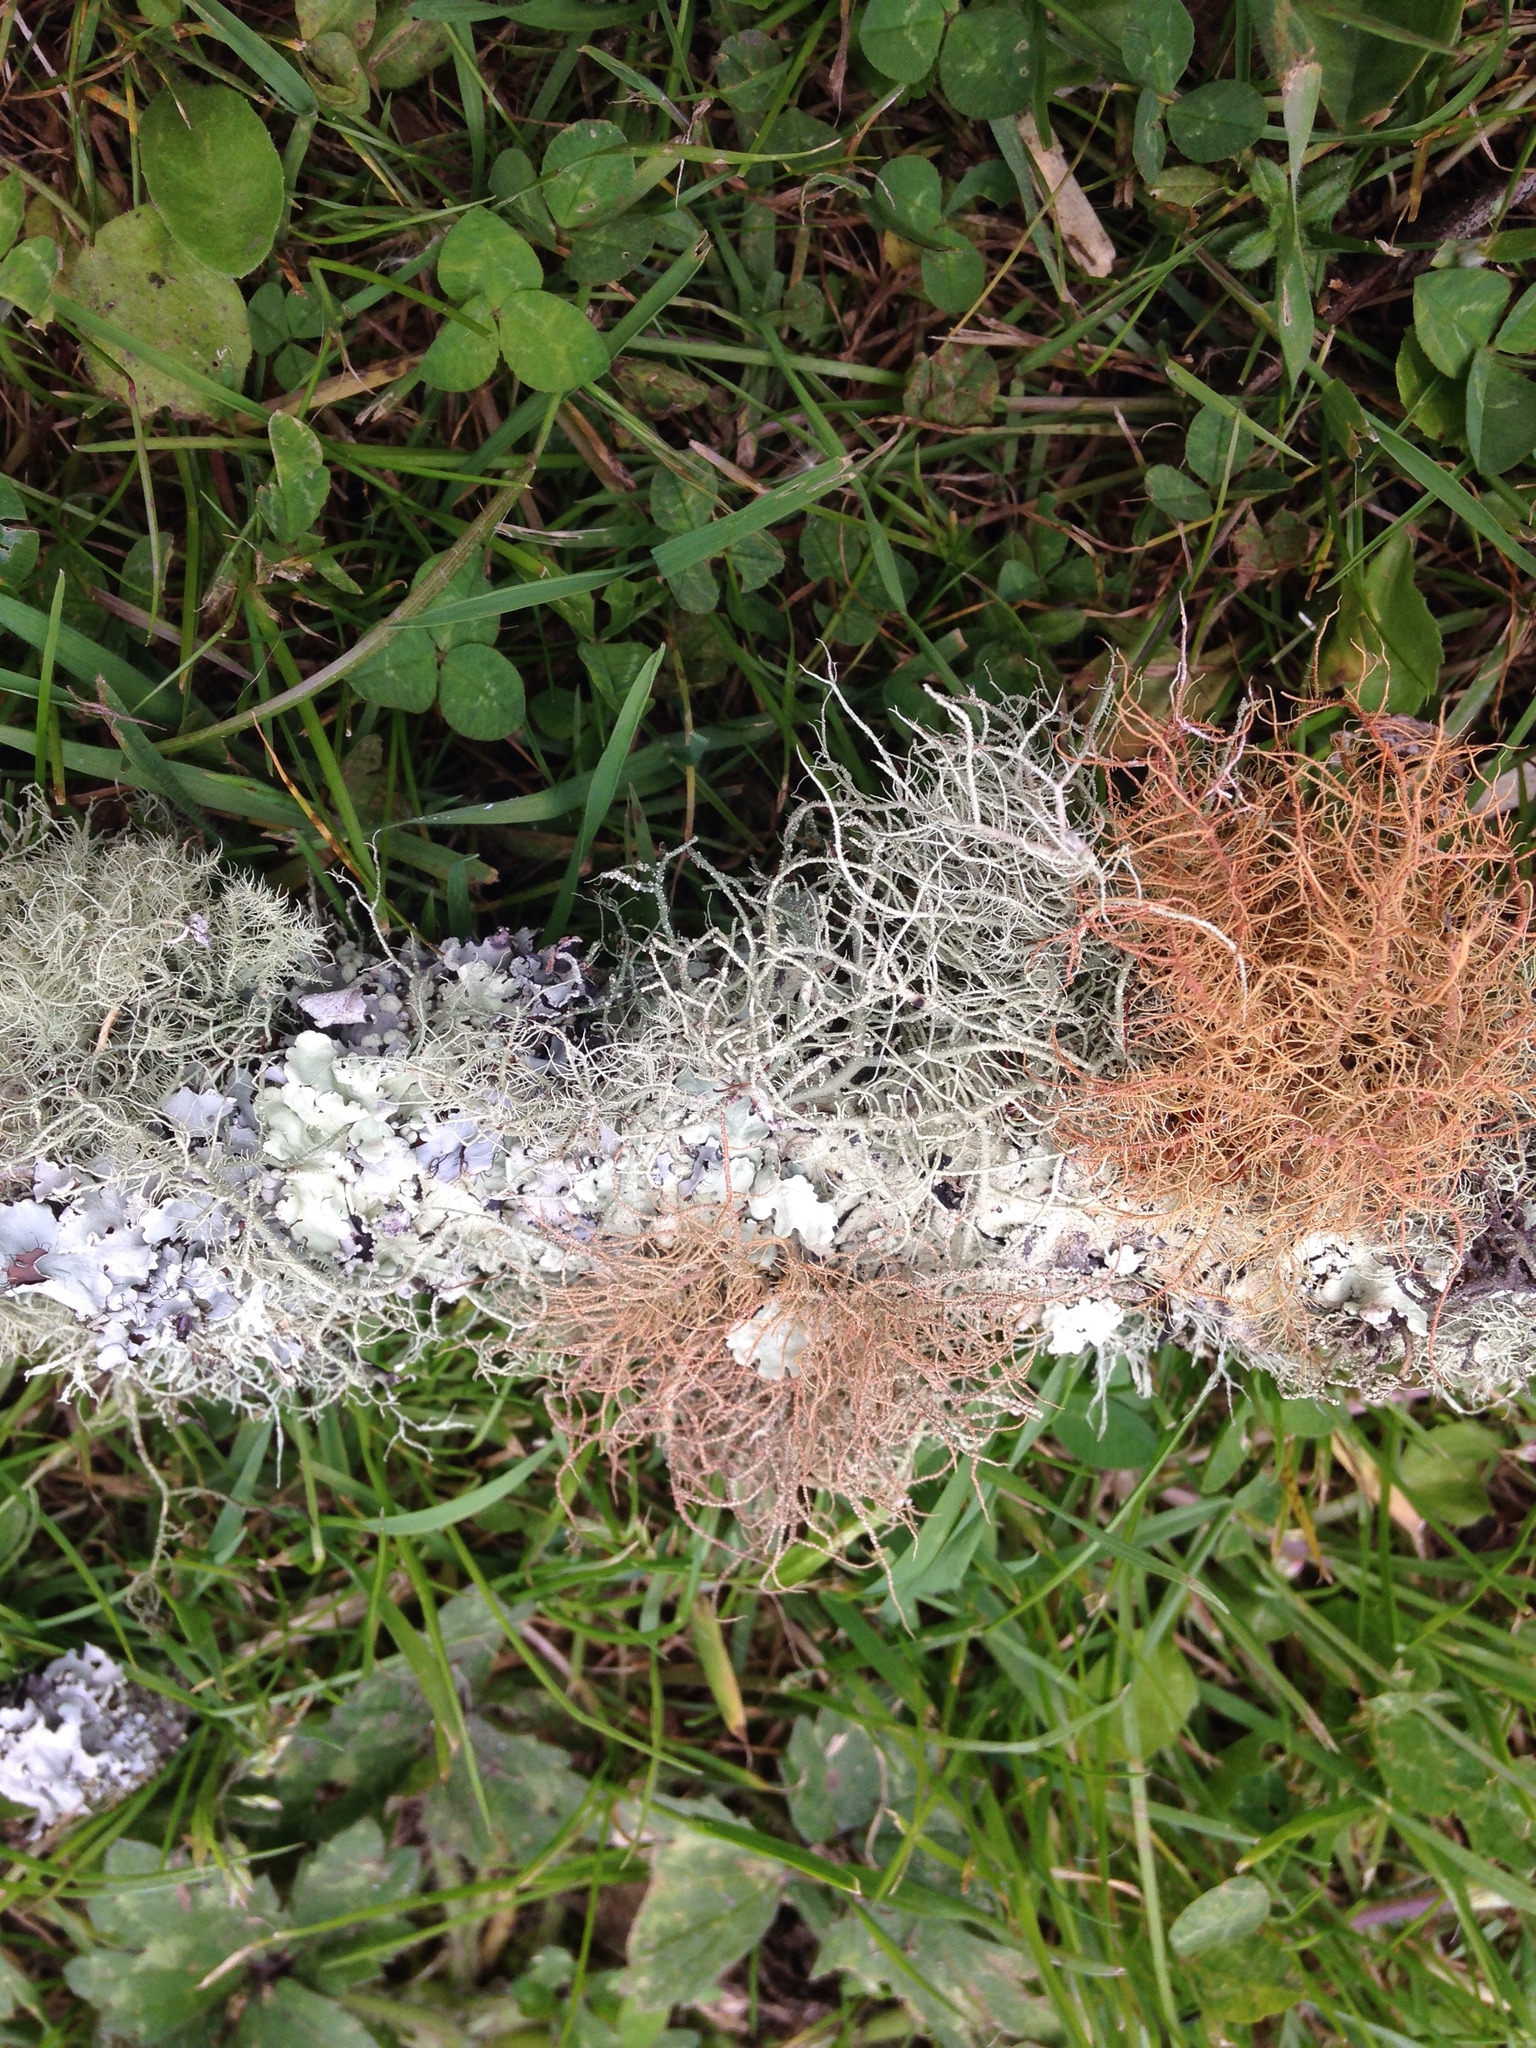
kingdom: Fungi
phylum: Ascomycota
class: Lecanoromycetes
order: Lecanorales
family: Parmeliaceae
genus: Usnea
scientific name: Usnea rubicunda
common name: Red beard lichen
